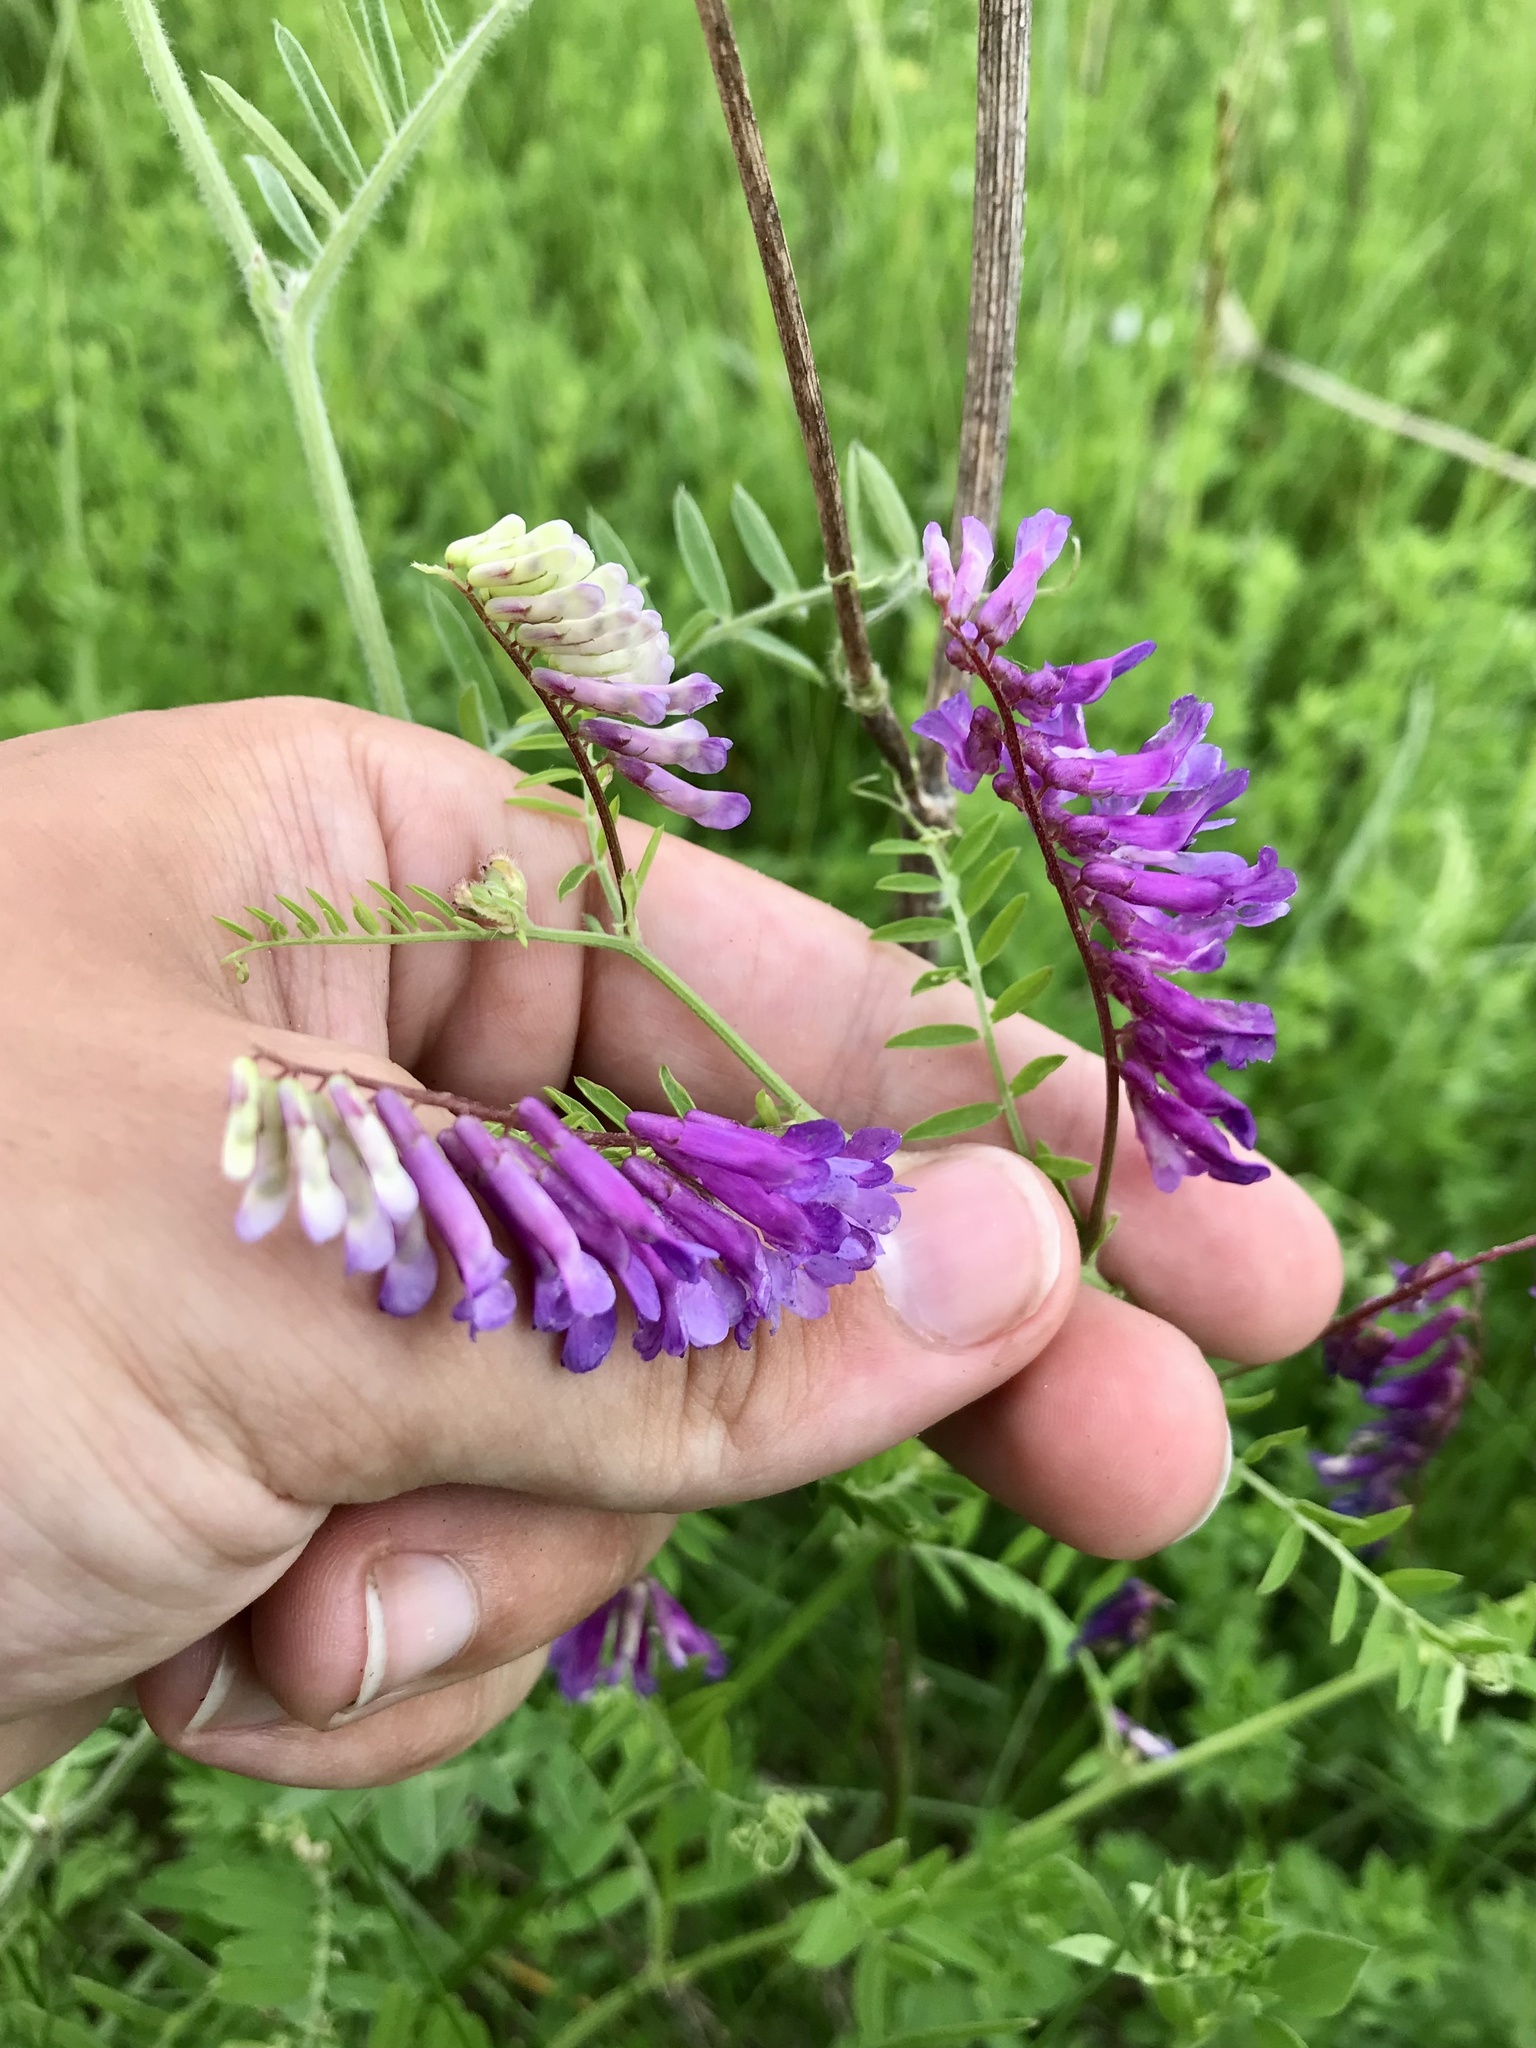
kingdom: Plantae
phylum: Tracheophyta
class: Magnoliopsida
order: Fabales
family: Fabaceae
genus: Vicia
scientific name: Vicia villosa
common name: Fodder vetch
